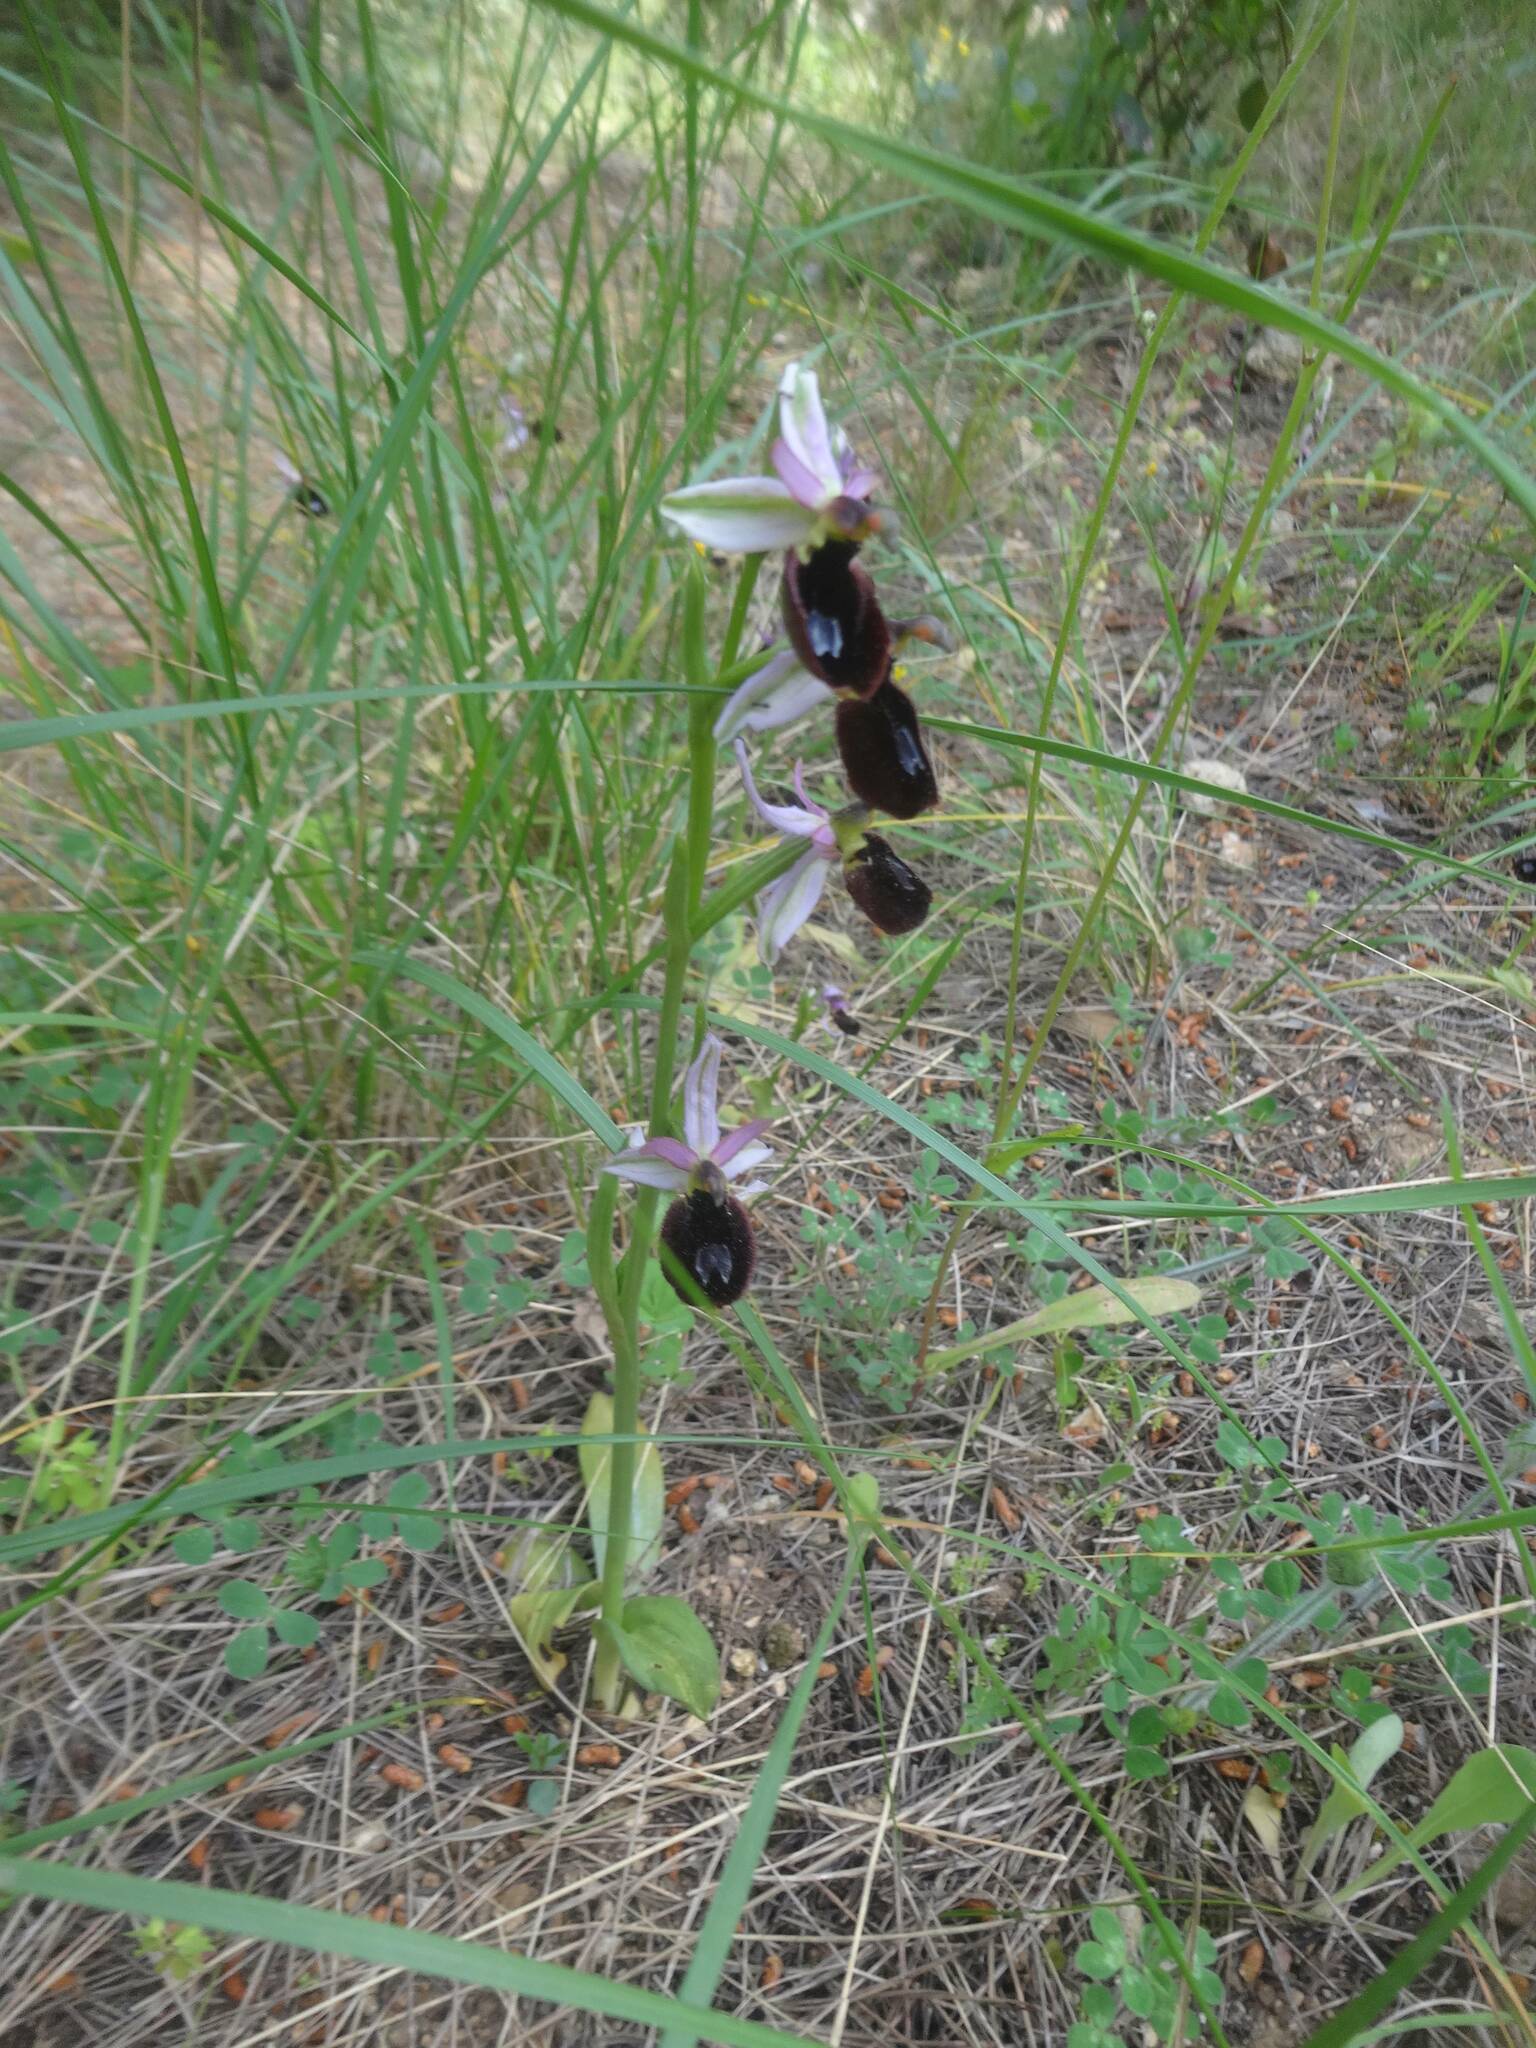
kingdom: Plantae
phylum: Tracheophyta
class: Liliopsida
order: Asparagales
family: Orchidaceae
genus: Ophrys
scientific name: Ophrys bertolonii
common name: Bertoloni's bee orchid
